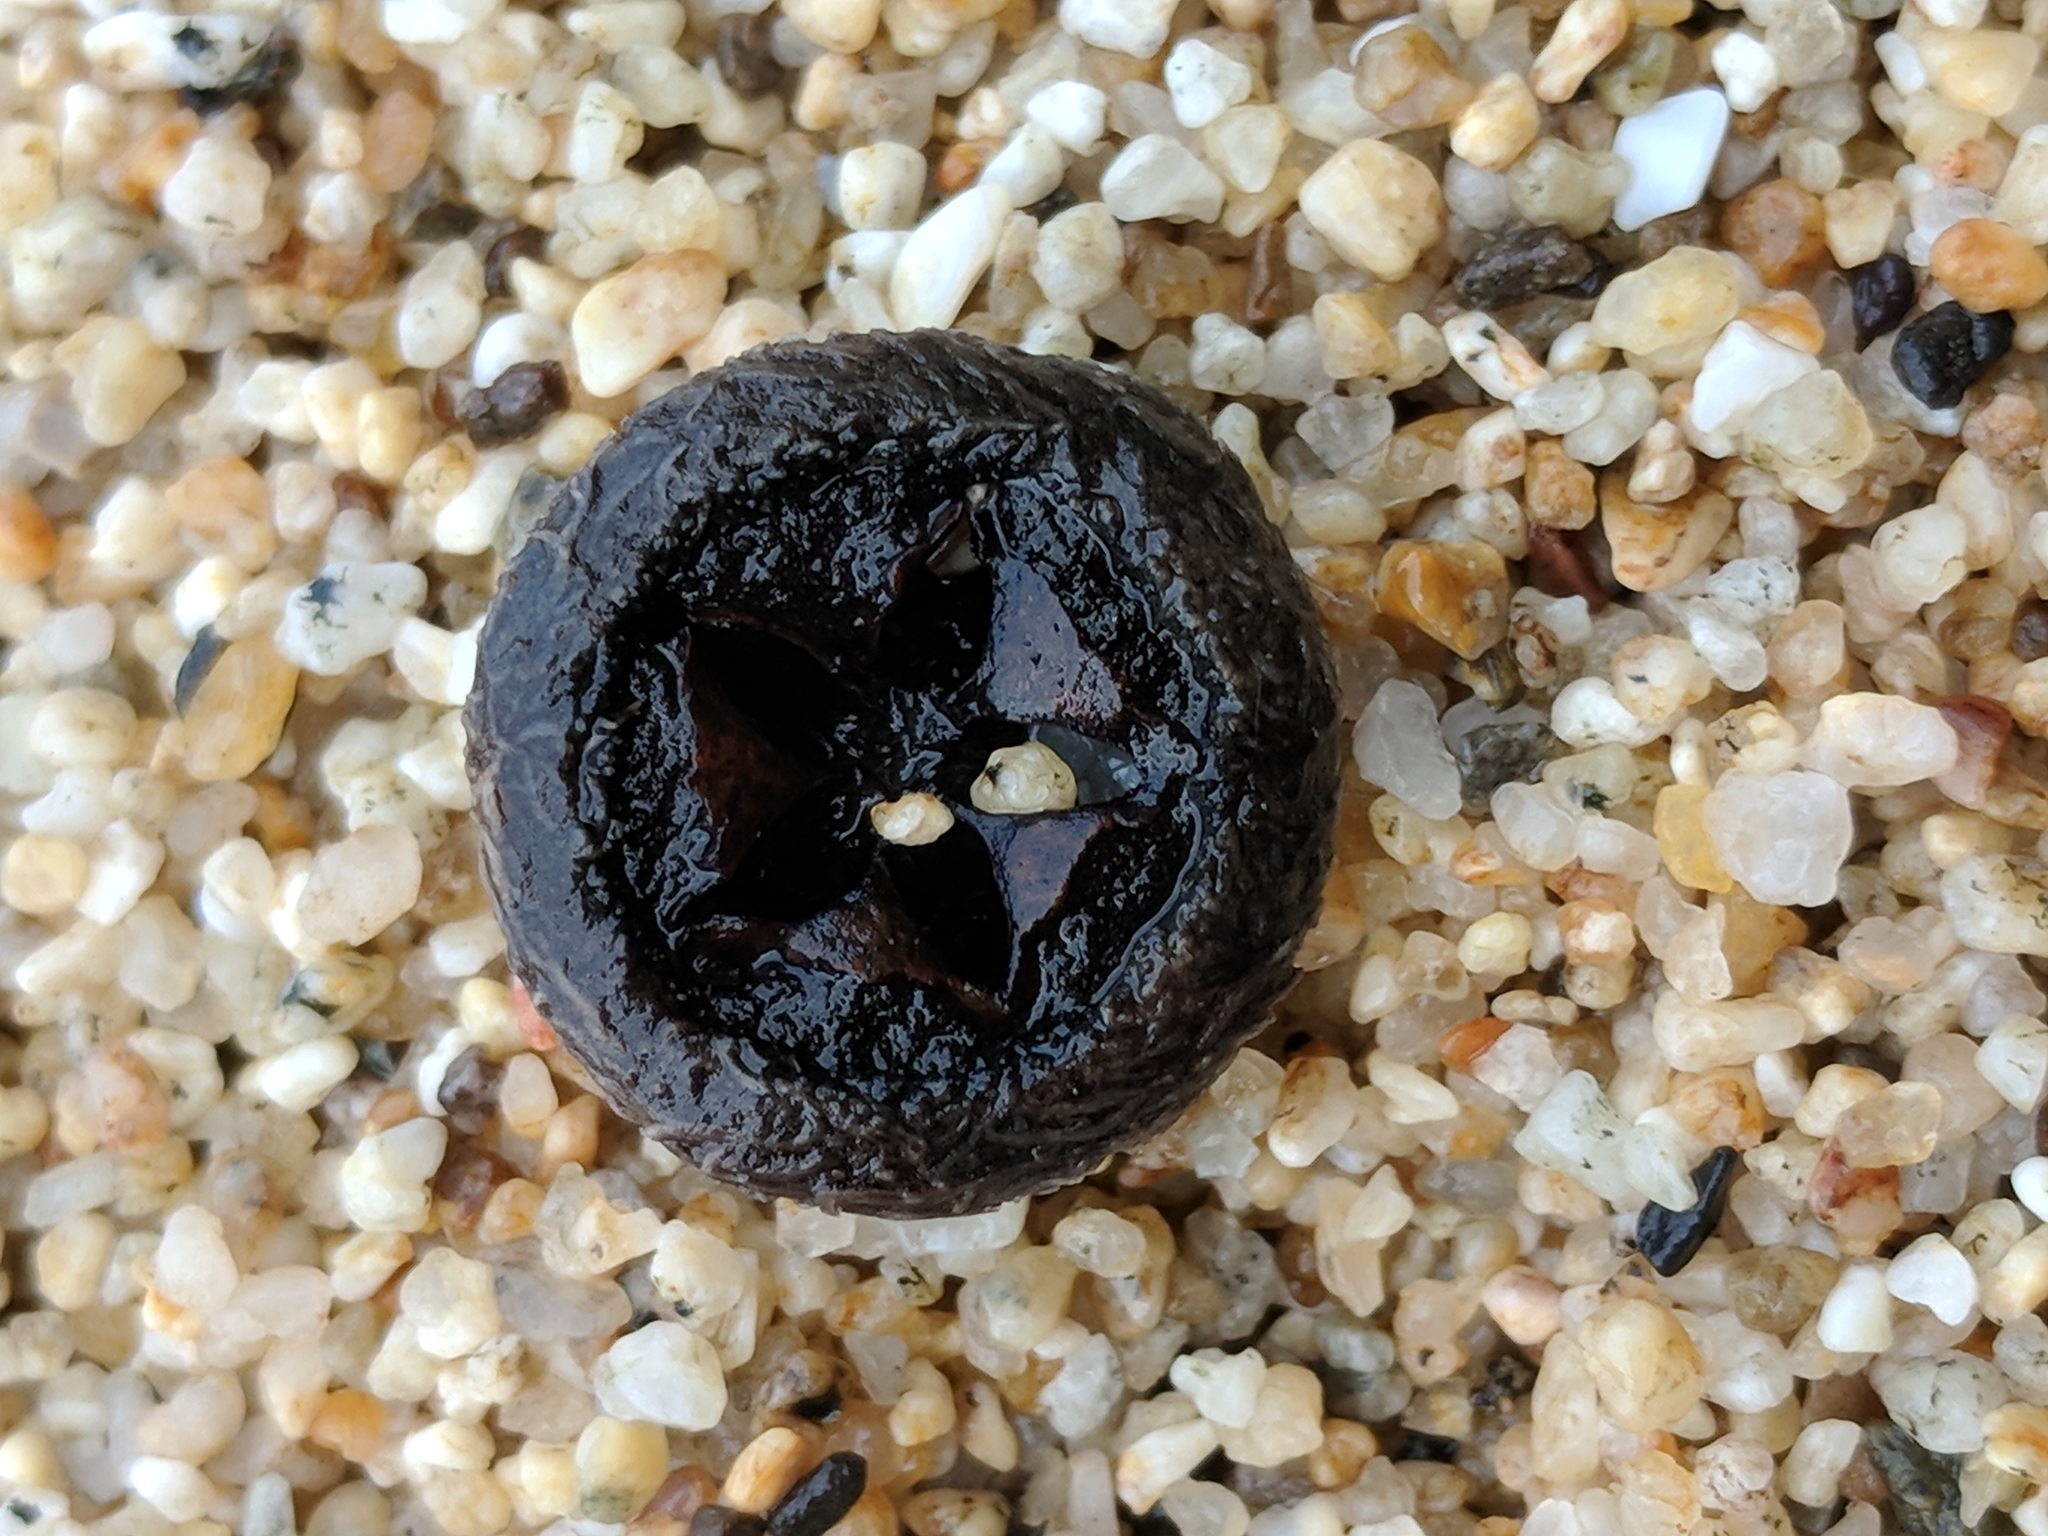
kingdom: Plantae
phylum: Tracheophyta
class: Magnoliopsida
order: Myrtales
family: Myrtaceae
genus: Eucalyptus
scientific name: Eucalyptus globulus
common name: Southern blue-gum
